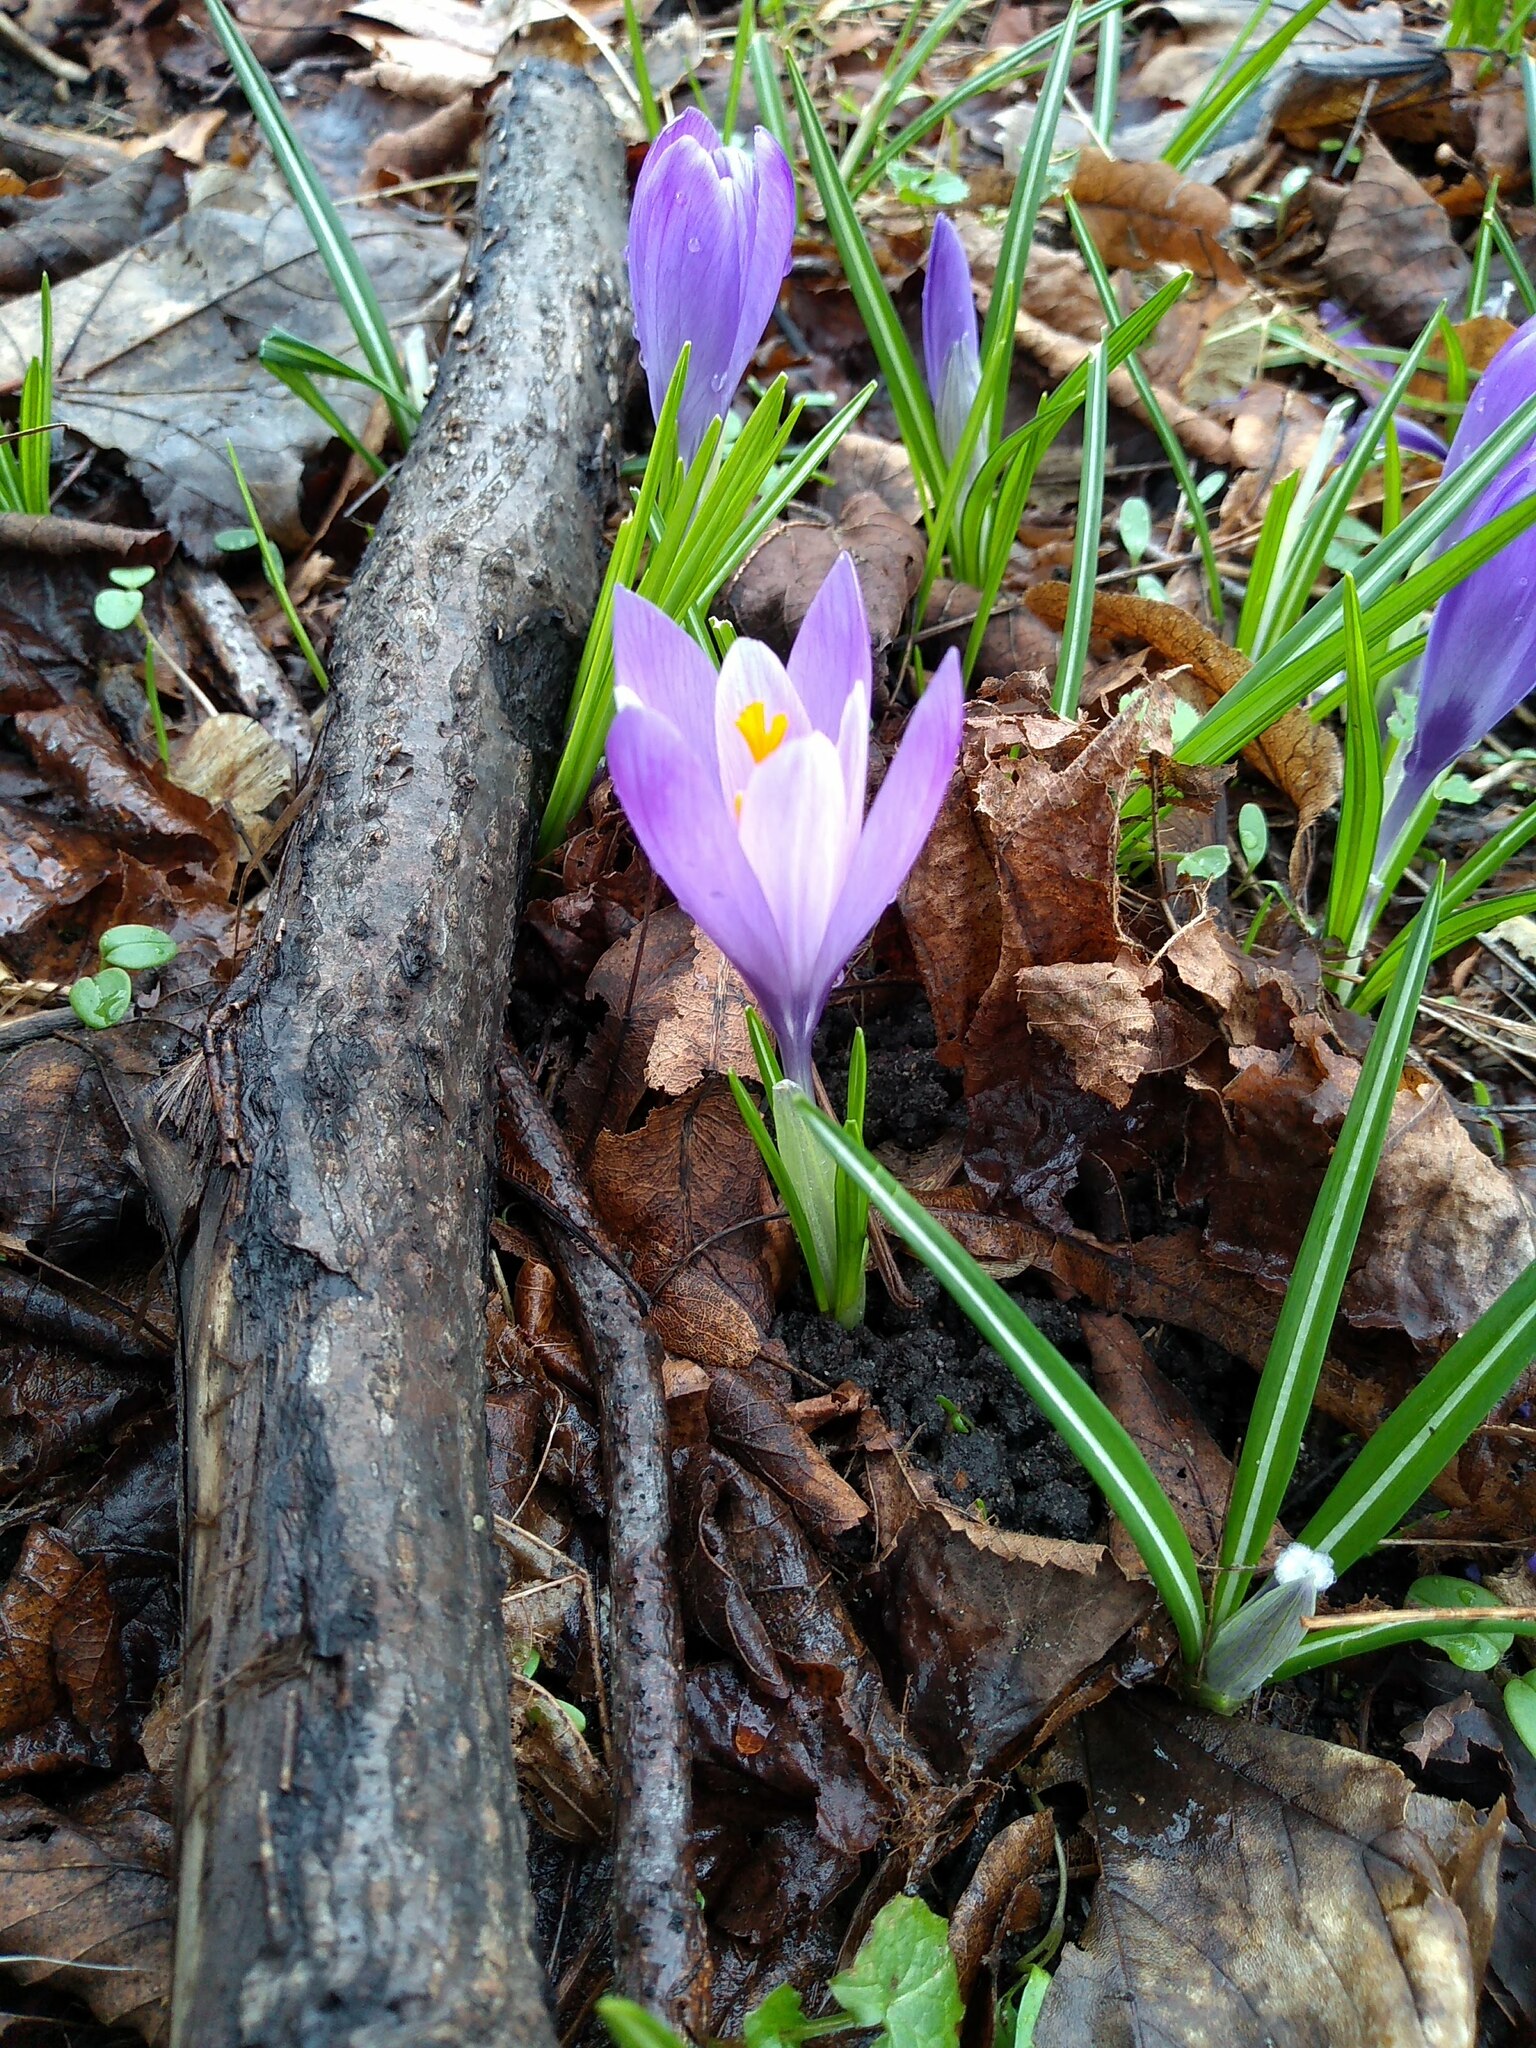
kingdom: Plantae
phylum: Tracheophyta
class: Liliopsida
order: Asparagales
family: Iridaceae
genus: Crocus
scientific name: Crocus neapolitanus
